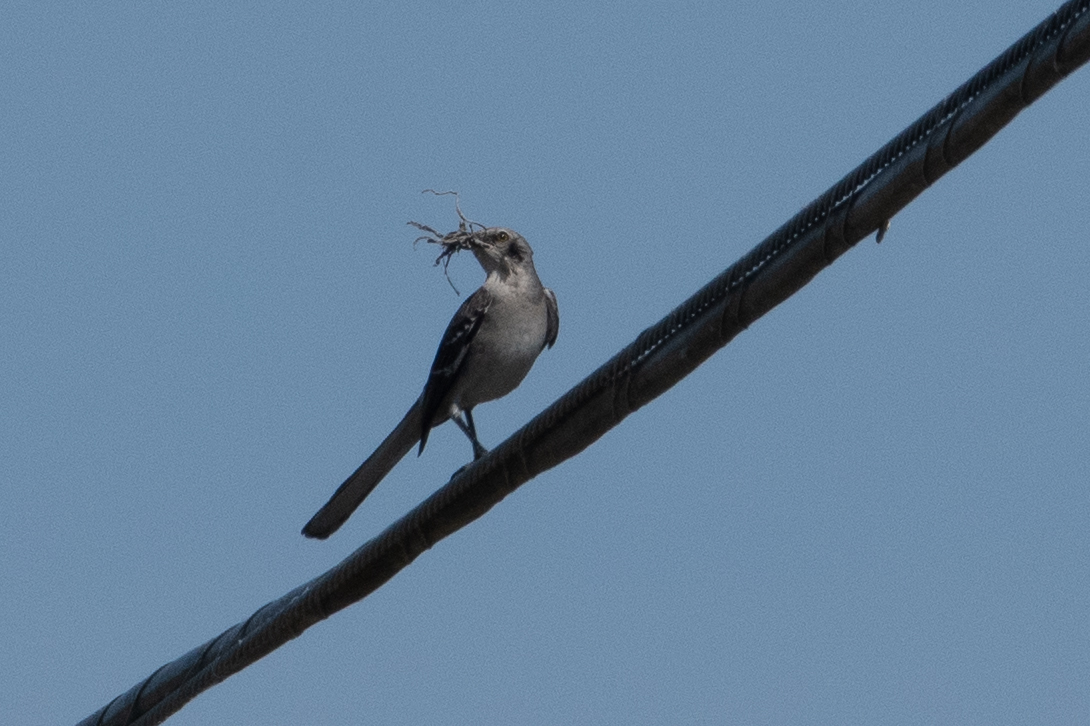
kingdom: Animalia
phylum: Chordata
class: Aves
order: Passeriformes
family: Mimidae
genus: Mimus
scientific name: Mimus polyglottos
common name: Northern mockingbird
